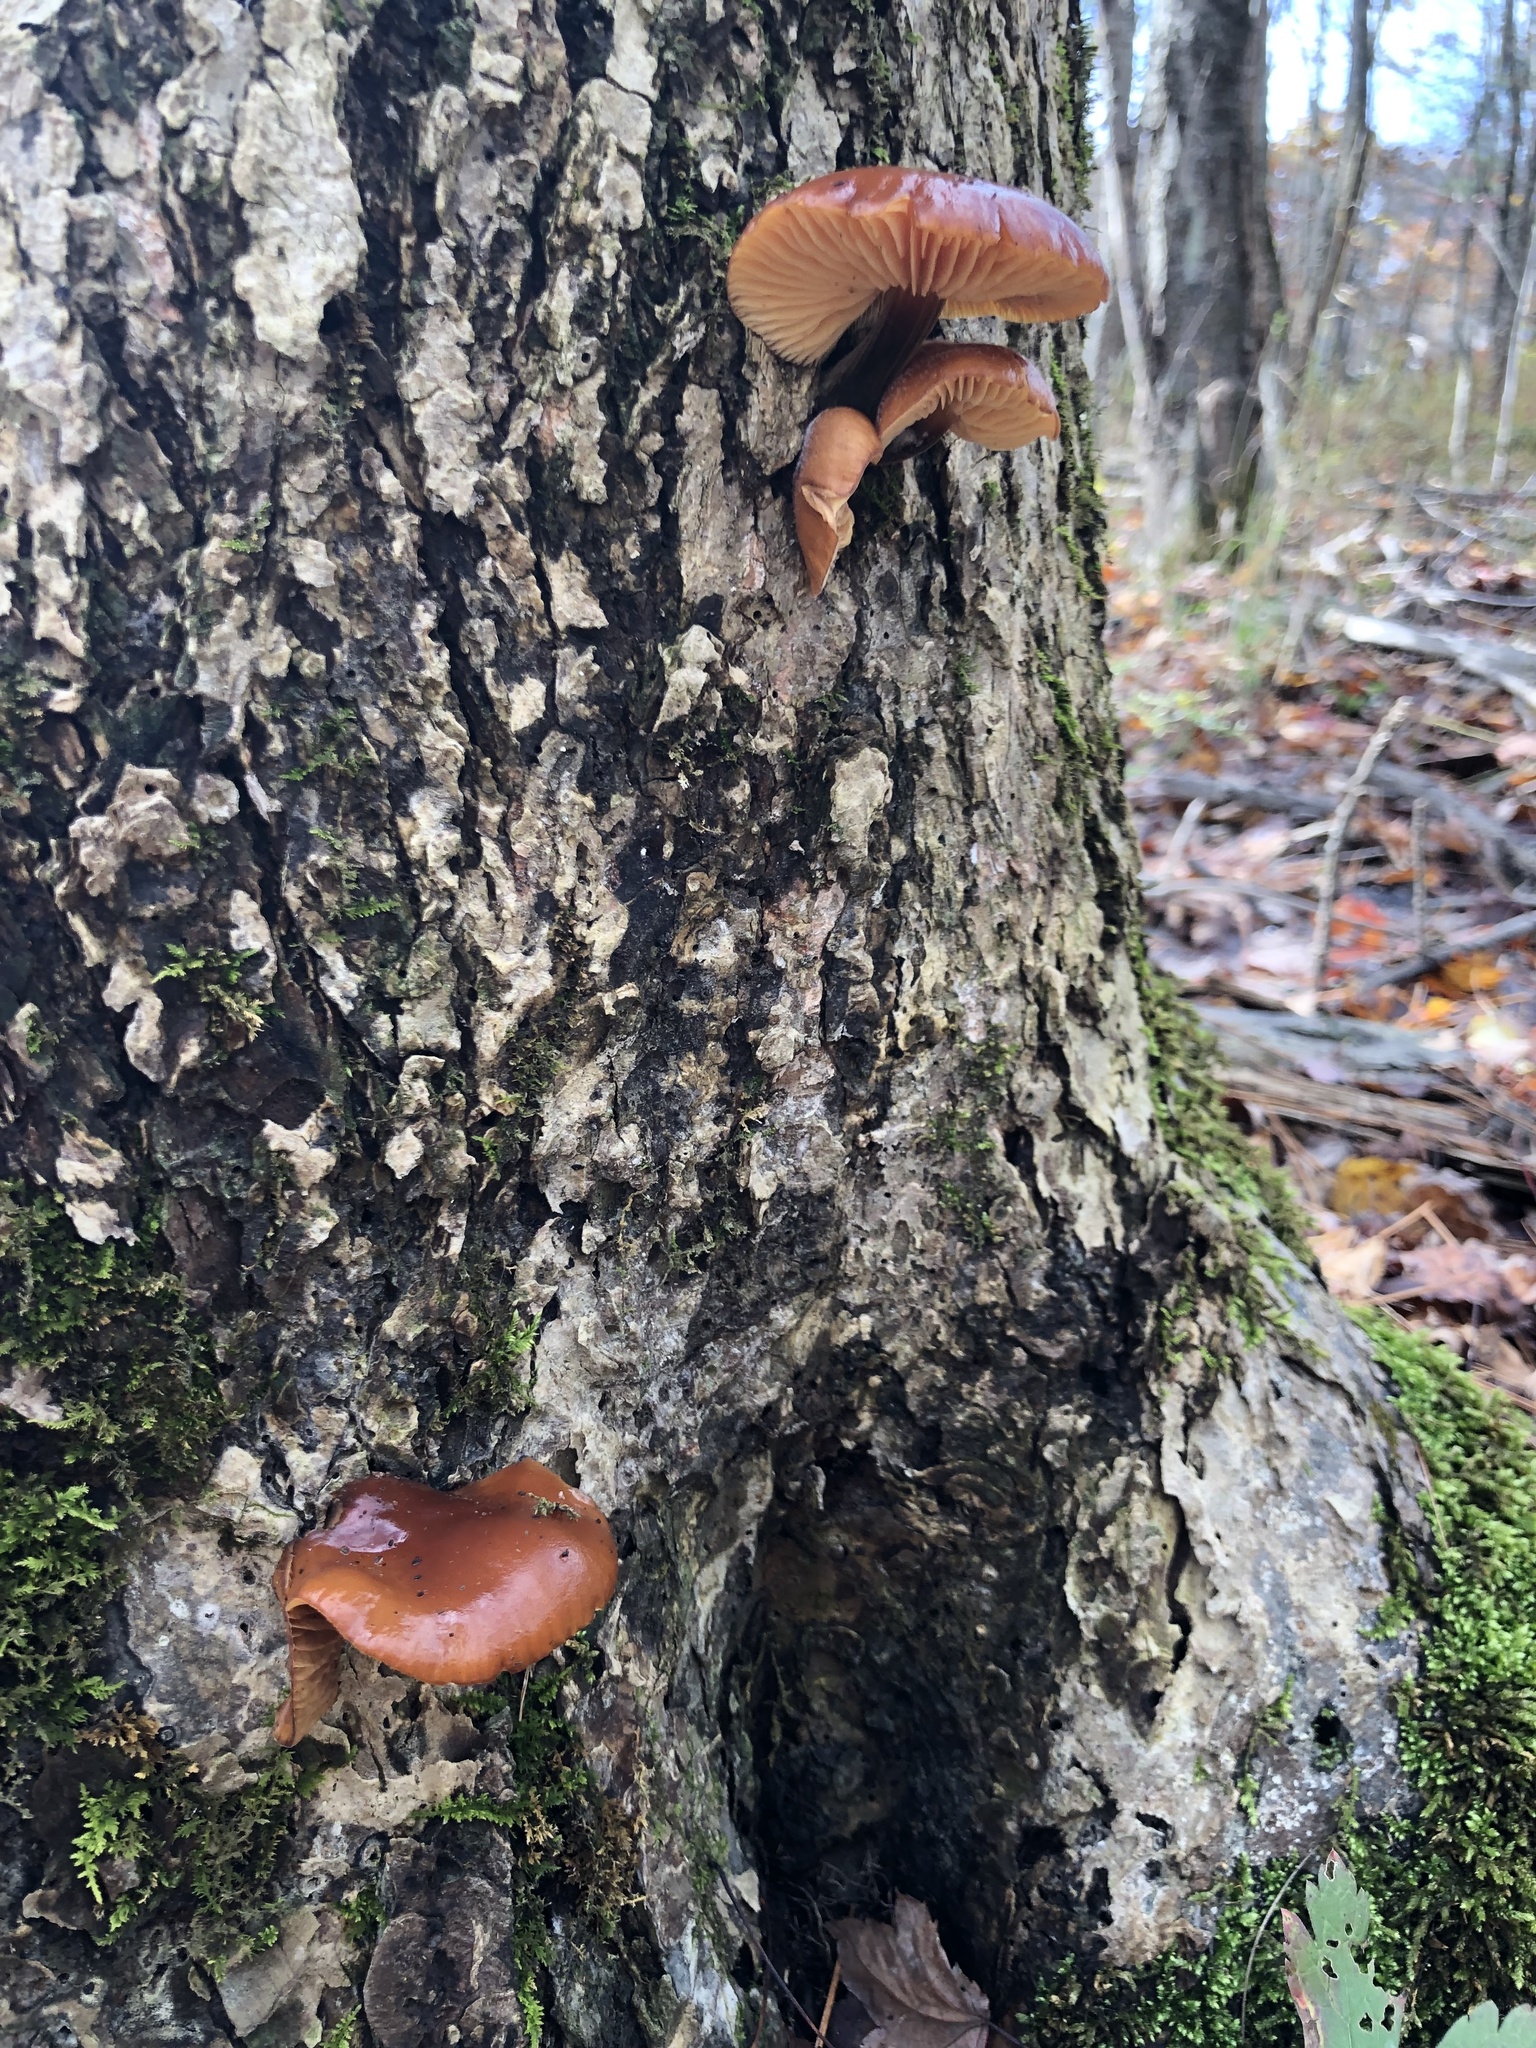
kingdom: Fungi
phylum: Basidiomycota
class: Agaricomycetes
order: Agaricales
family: Physalacriaceae
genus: Flammulina
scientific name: Flammulina velutipes
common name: Velvet shank
